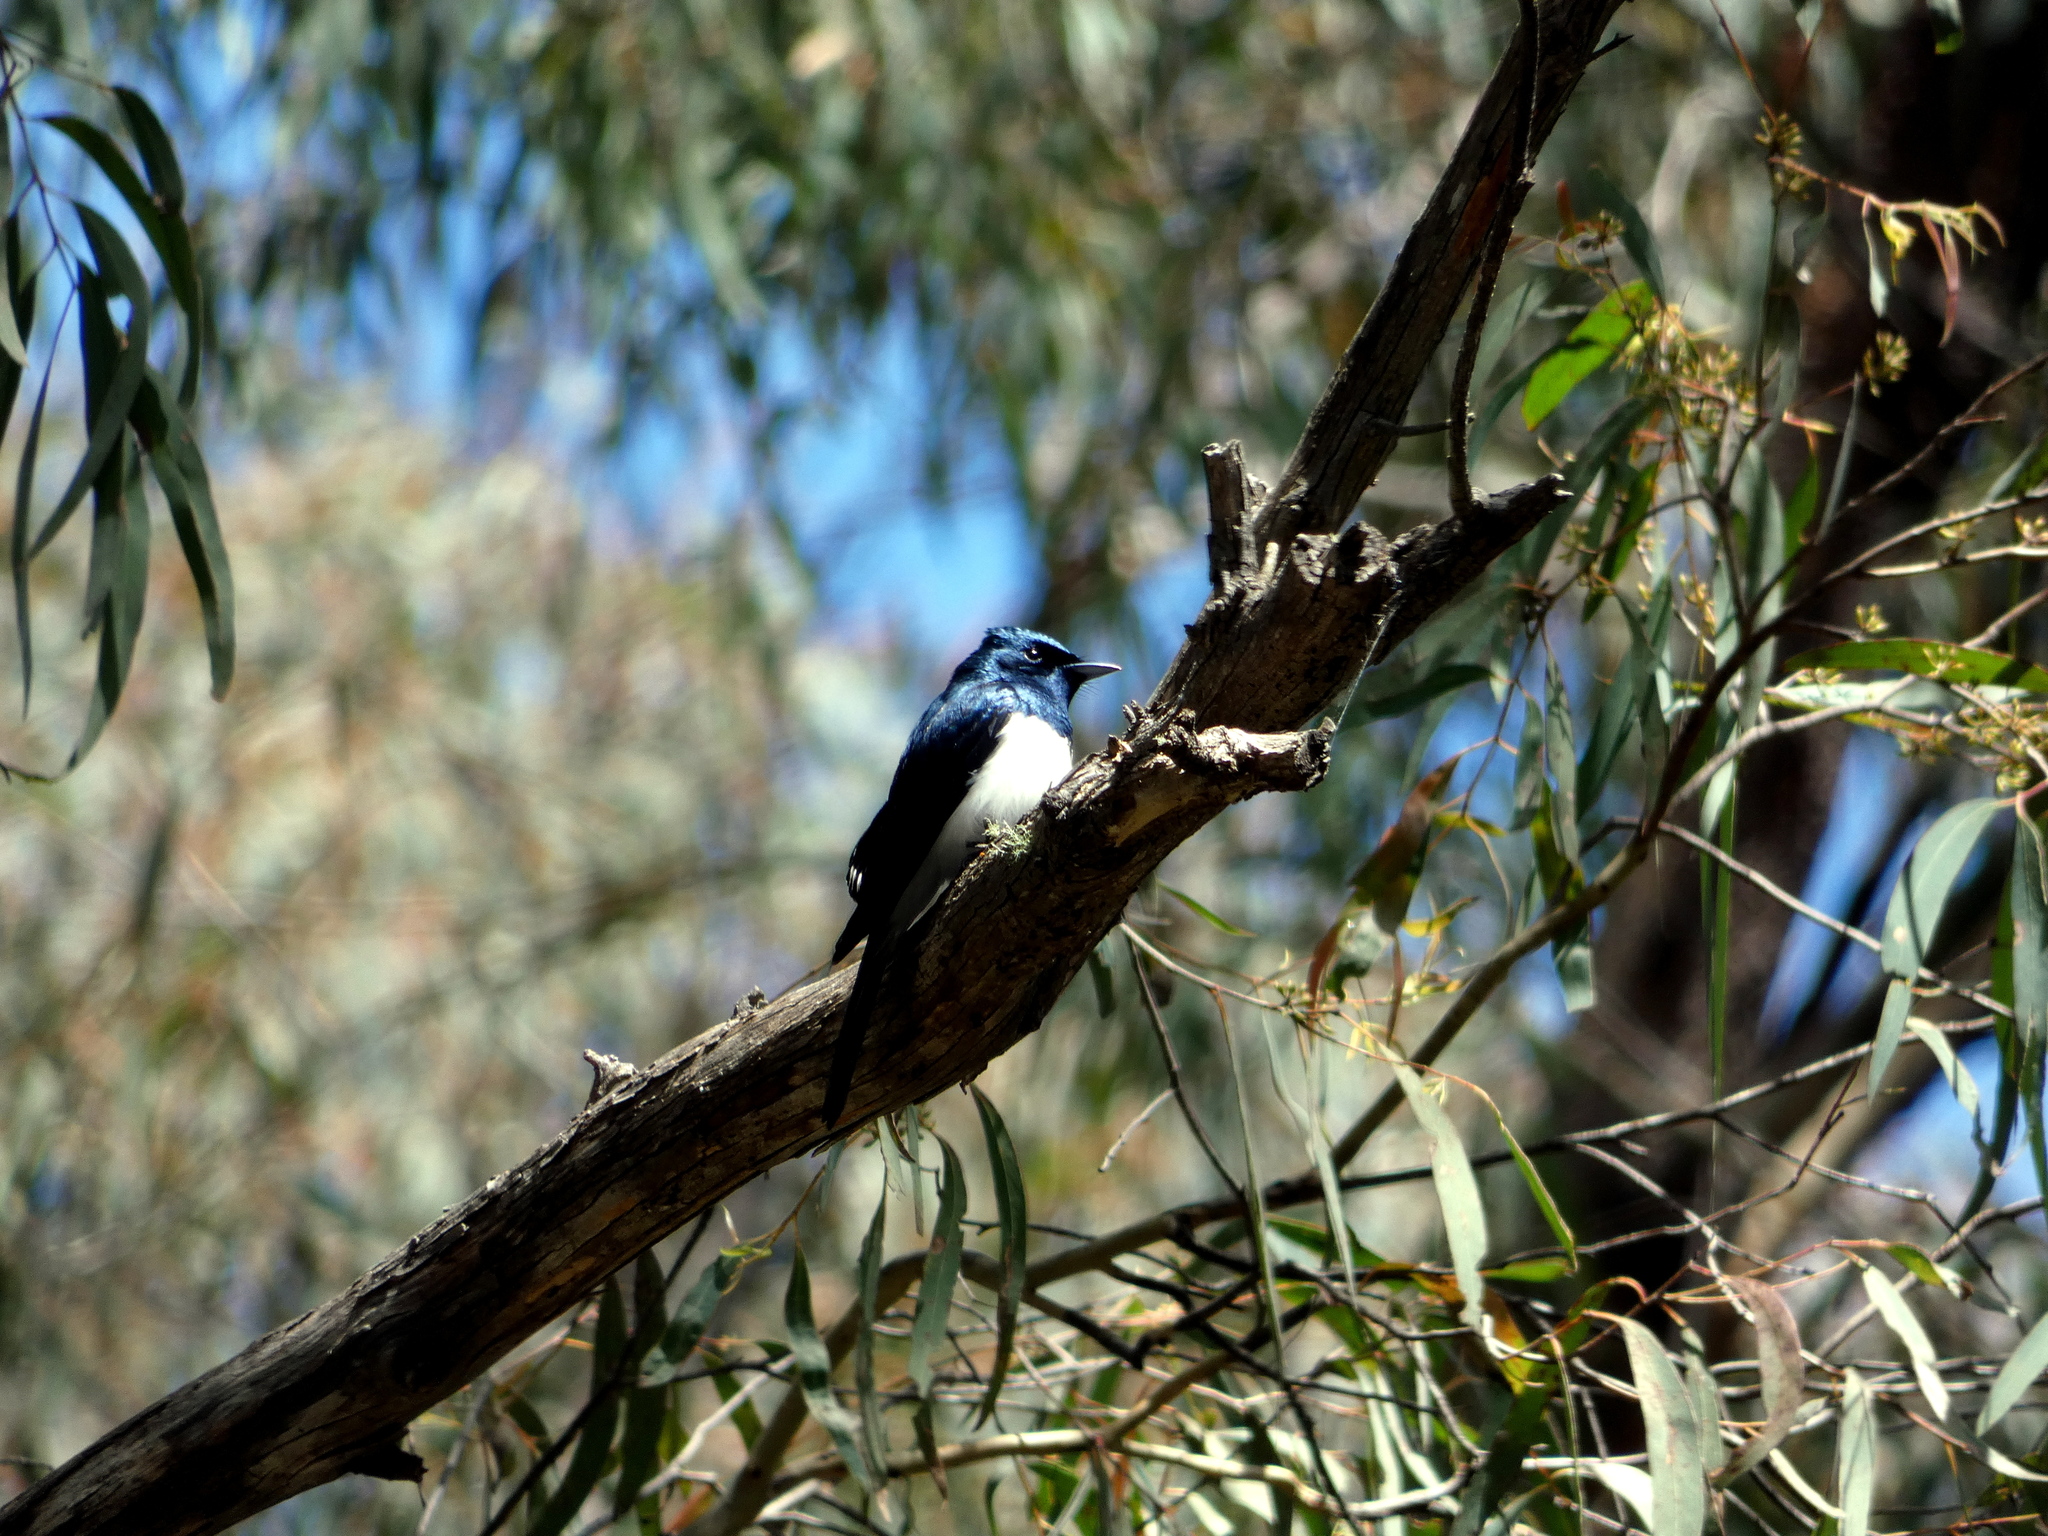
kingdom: Animalia
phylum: Chordata
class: Aves
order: Passeriformes
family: Monarchidae
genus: Myiagra
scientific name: Myiagra cyanoleuca
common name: Satin flycatcher
